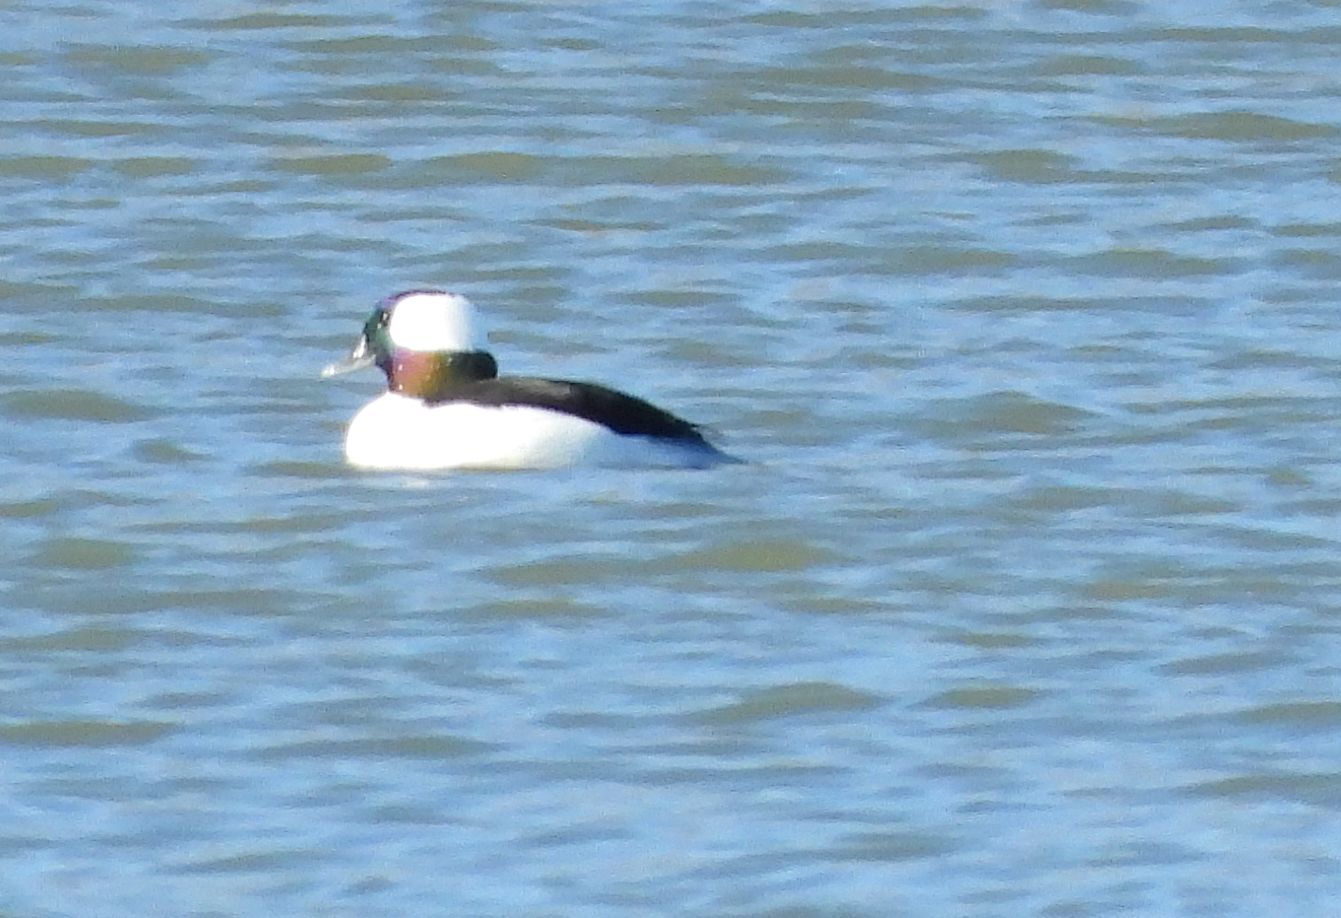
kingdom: Animalia
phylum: Chordata
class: Aves
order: Anseriformes
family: Anatidae
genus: Bucephala
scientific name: Bucephala albeola
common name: Bufflehead
